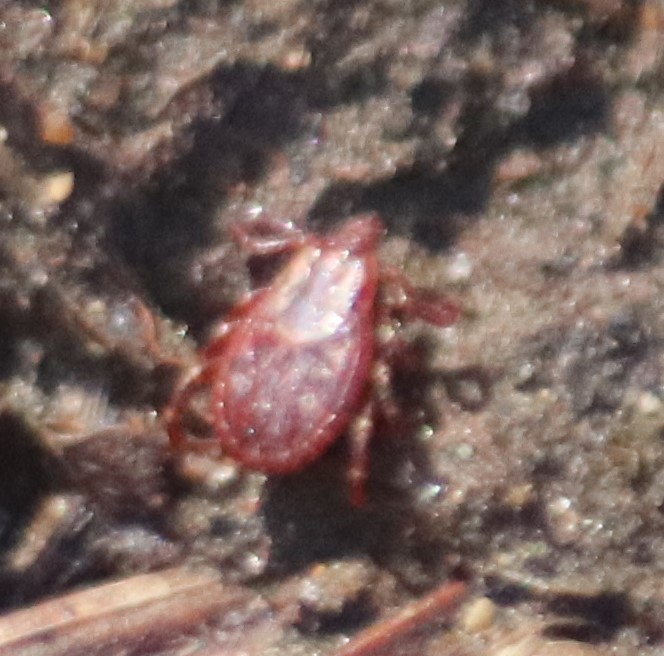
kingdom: Animalia
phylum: Arthropoda
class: Arachnida
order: Ixodida
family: Ixodidae
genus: Dermacentor
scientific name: Dermacentor variabilis
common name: American dog tick
